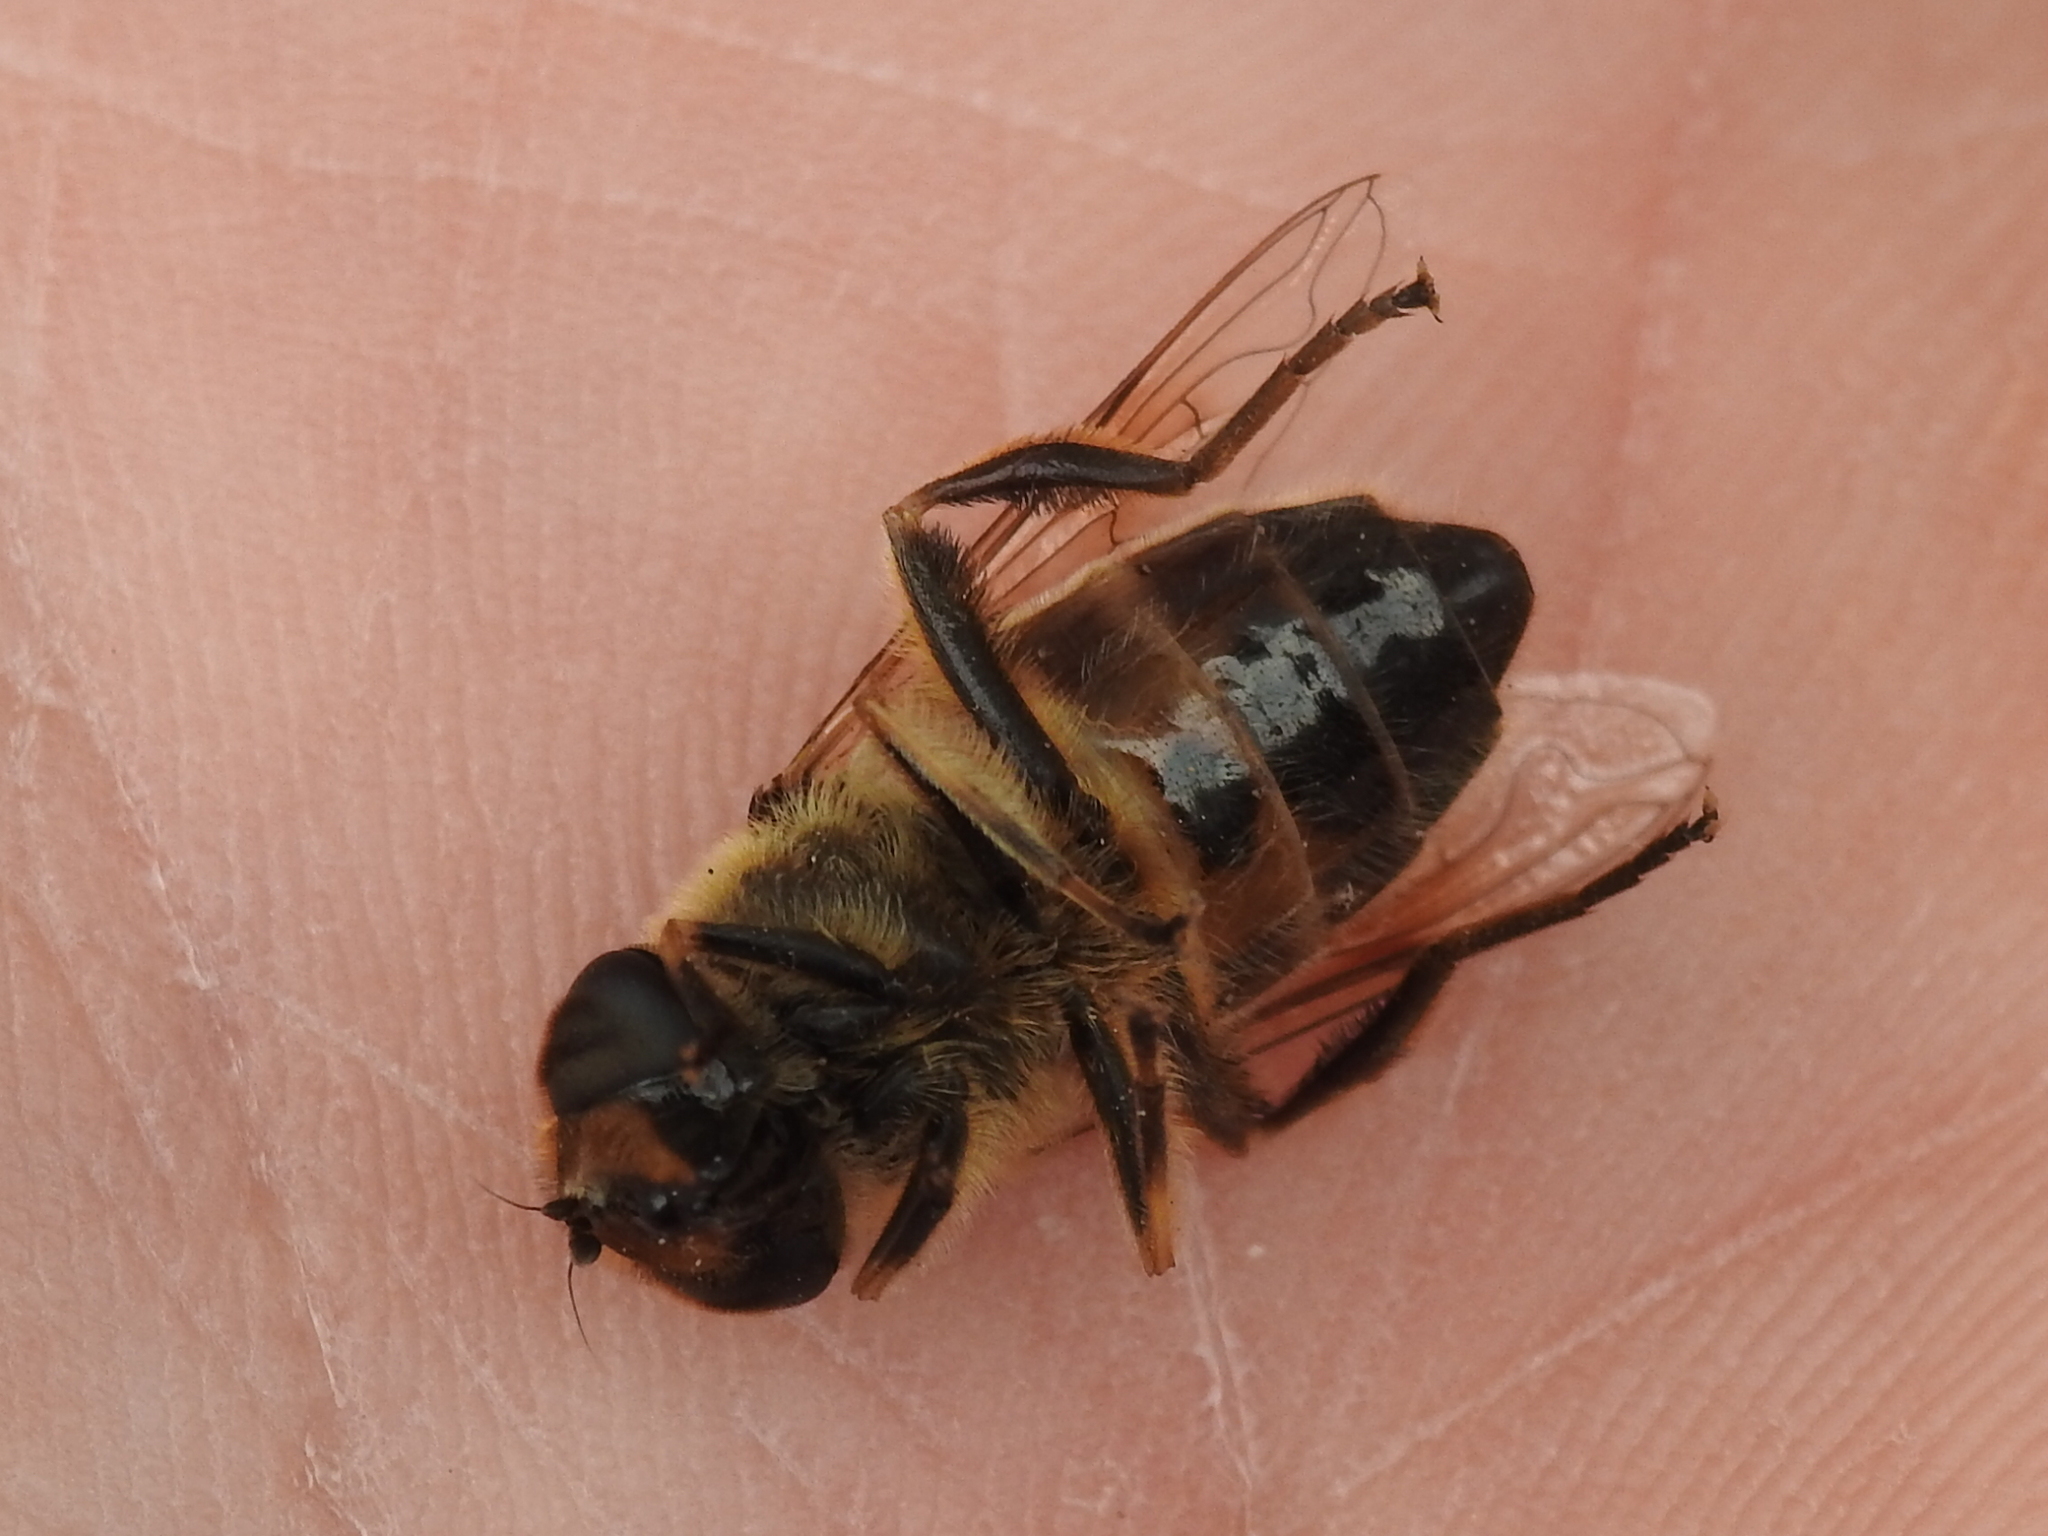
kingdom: Animalia
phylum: Arthropoda
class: Insecta
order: Diptera
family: Syrphidae
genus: Eristalis
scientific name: Eristalis tenax
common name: Drone fly
